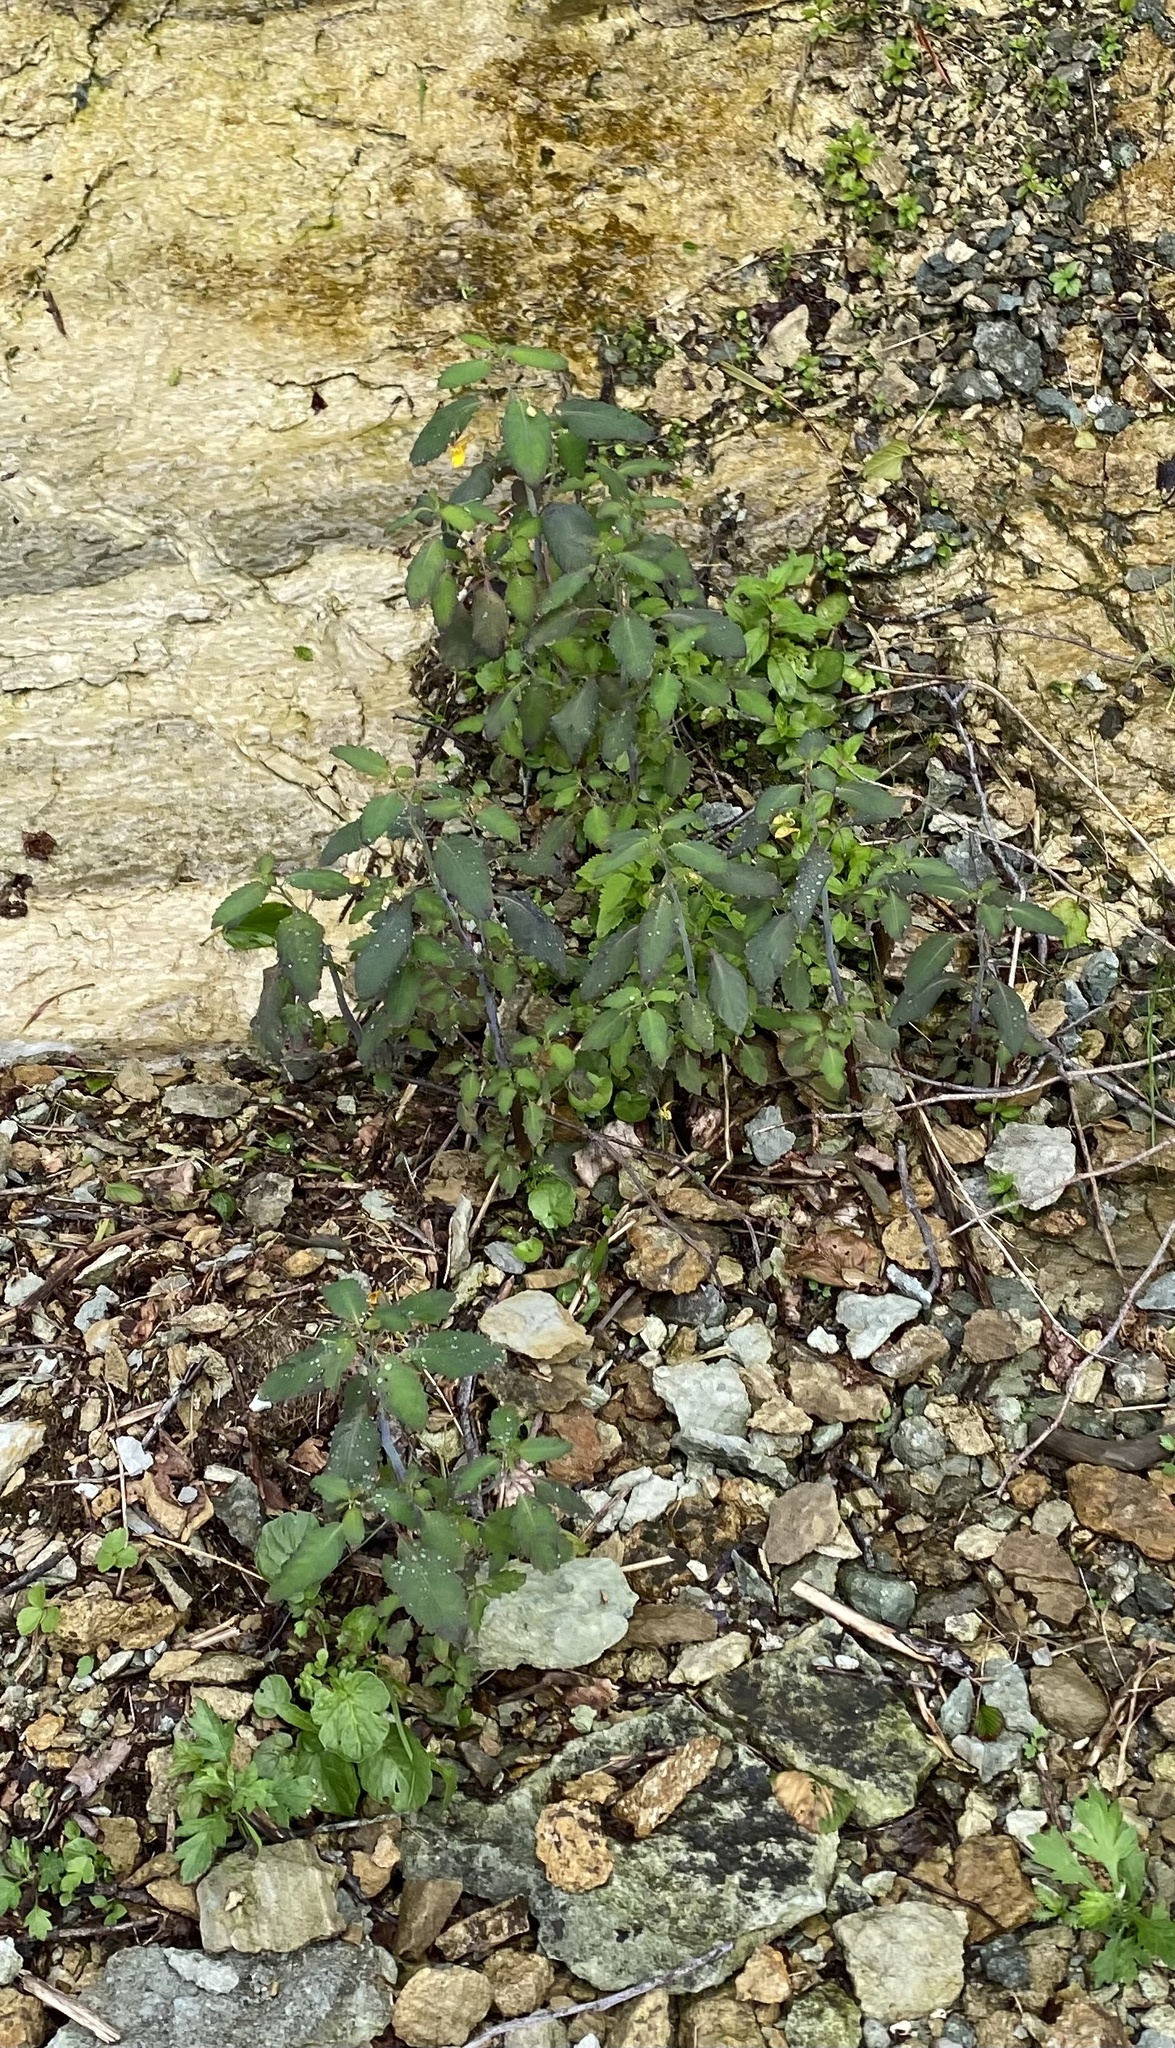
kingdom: Plantae
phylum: Tracheophyta
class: Magnoliopsida
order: Ericales
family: Balsaminaceae
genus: Impatiens
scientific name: Impatiens noli-tangere
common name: Touch-me-not balsam
